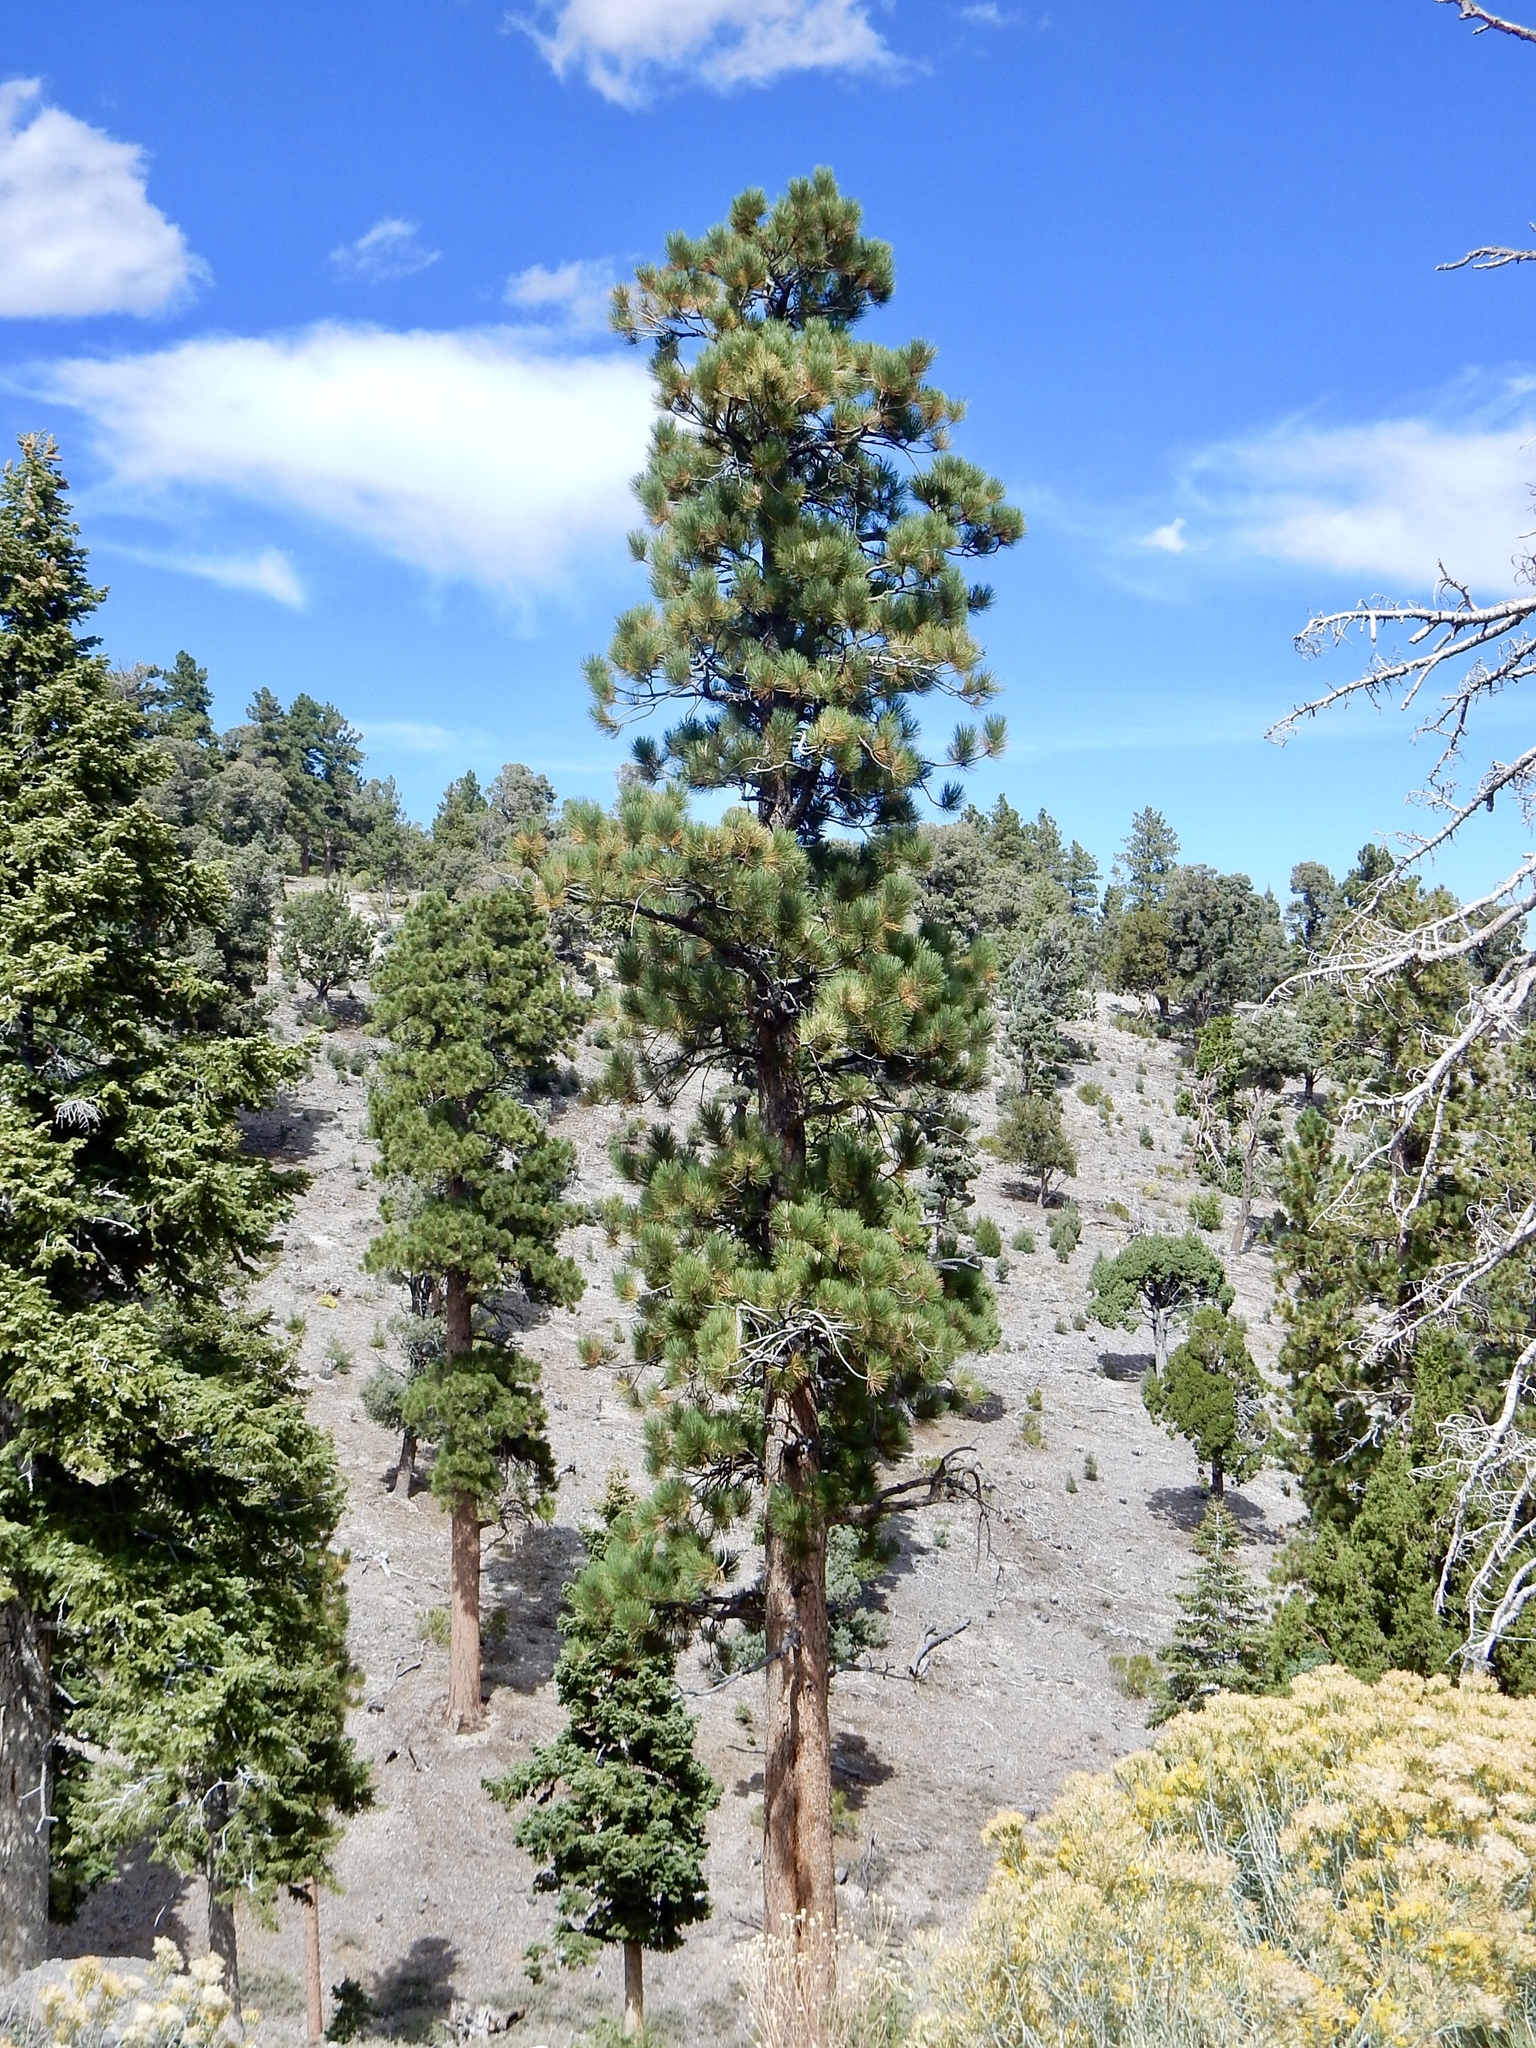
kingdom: Plantae
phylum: Tracheophyta
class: Pinopsida
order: Pinales
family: Pinaceae
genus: Pinus
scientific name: Pinus ponderosa
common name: Western yellow-pine
